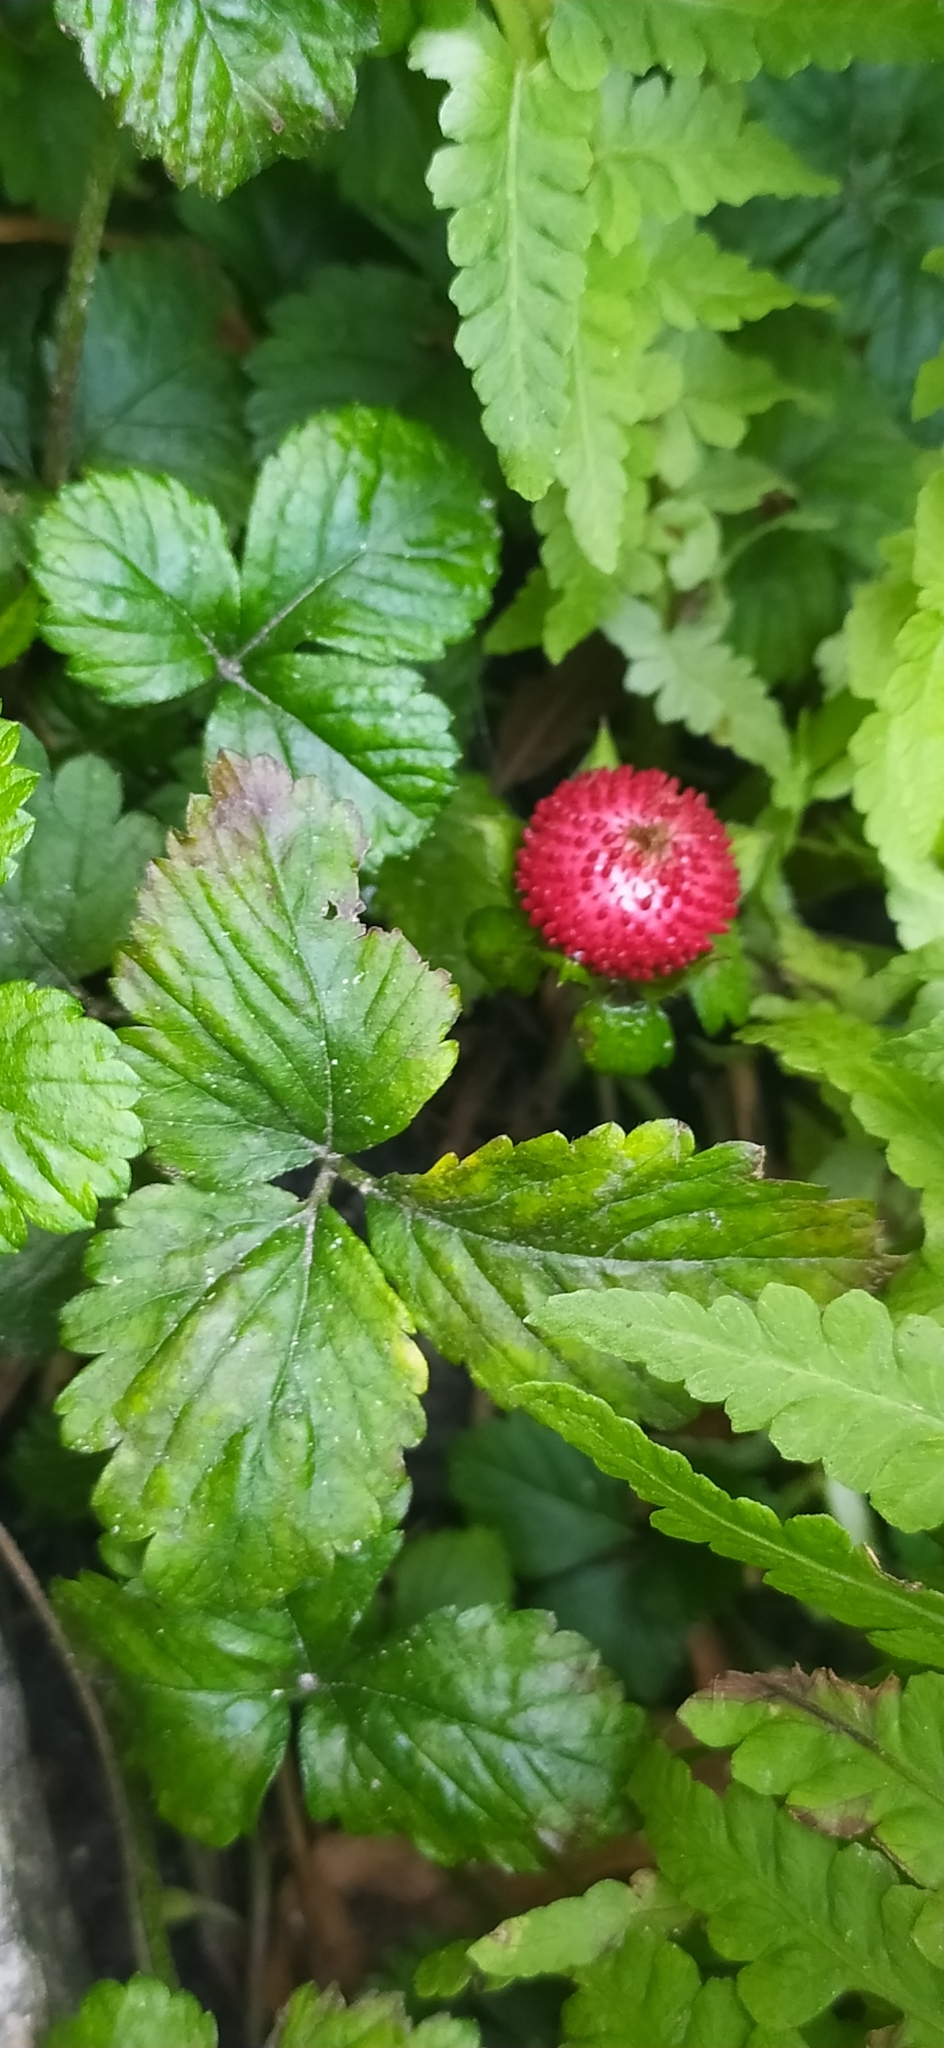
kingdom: Plantae
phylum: Tracheophyta
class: Magnoliopsida
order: Rosales
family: Rosaceae
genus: Potentilla
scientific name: Potentilla indica
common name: Yellow-flowered strawberry
